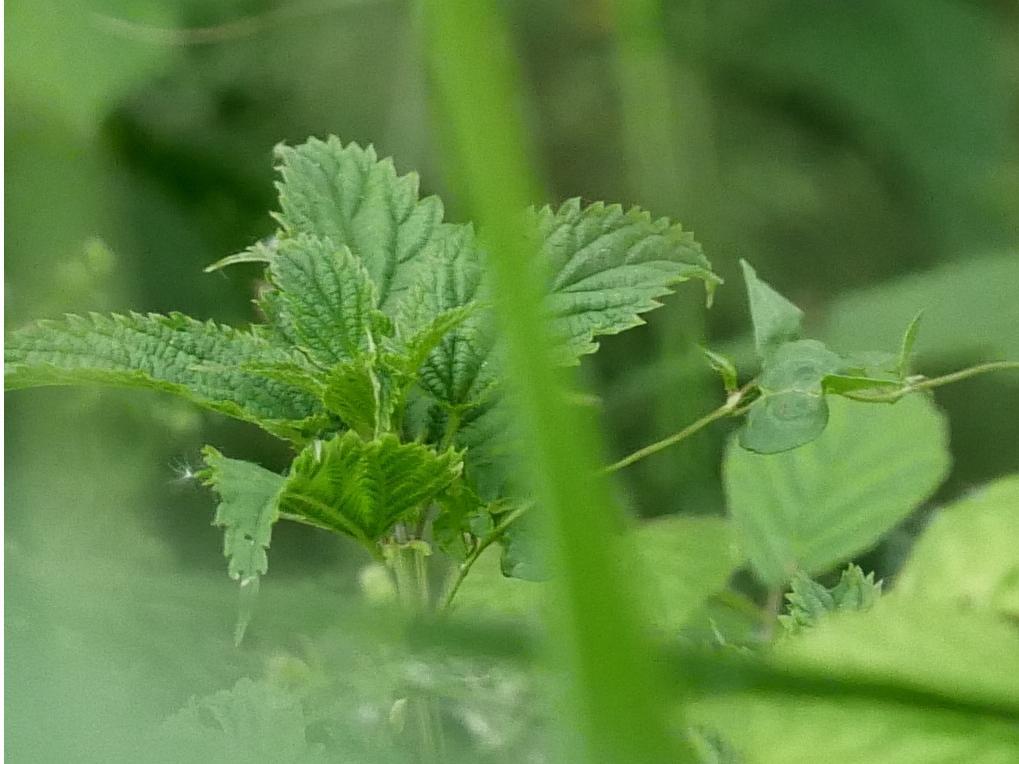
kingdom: Plantae
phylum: Tracheophyta
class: Magnoliopsida
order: Rosales
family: Urticaceae
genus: Urtica
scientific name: Urtica dioica
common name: Common nettle
